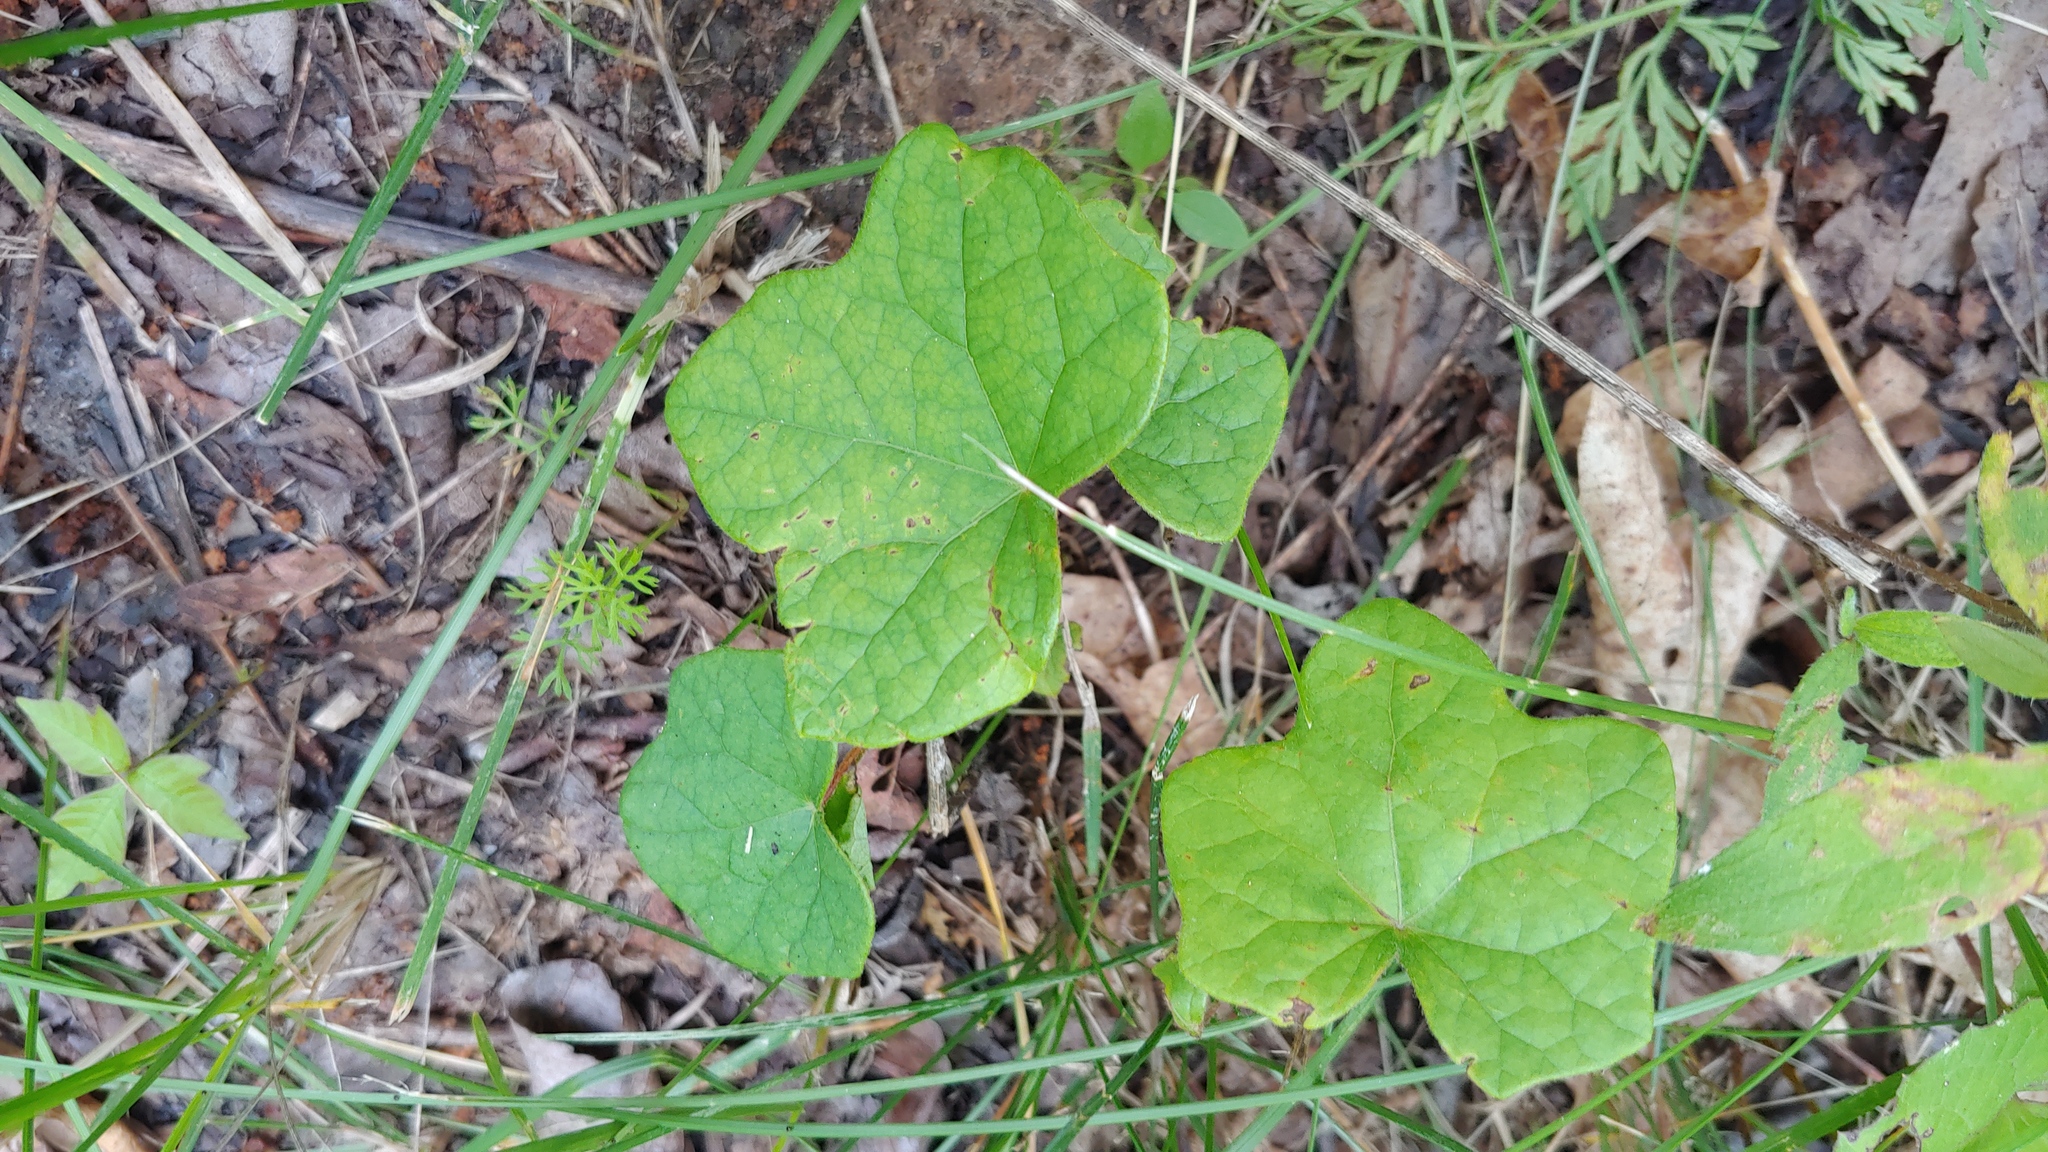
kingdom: Plantae
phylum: Tracheophyta
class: Magnoliopsida
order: Ranunculales
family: Menispermaceae
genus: Menispermum
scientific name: Menispermum canadense
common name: Moonseed
